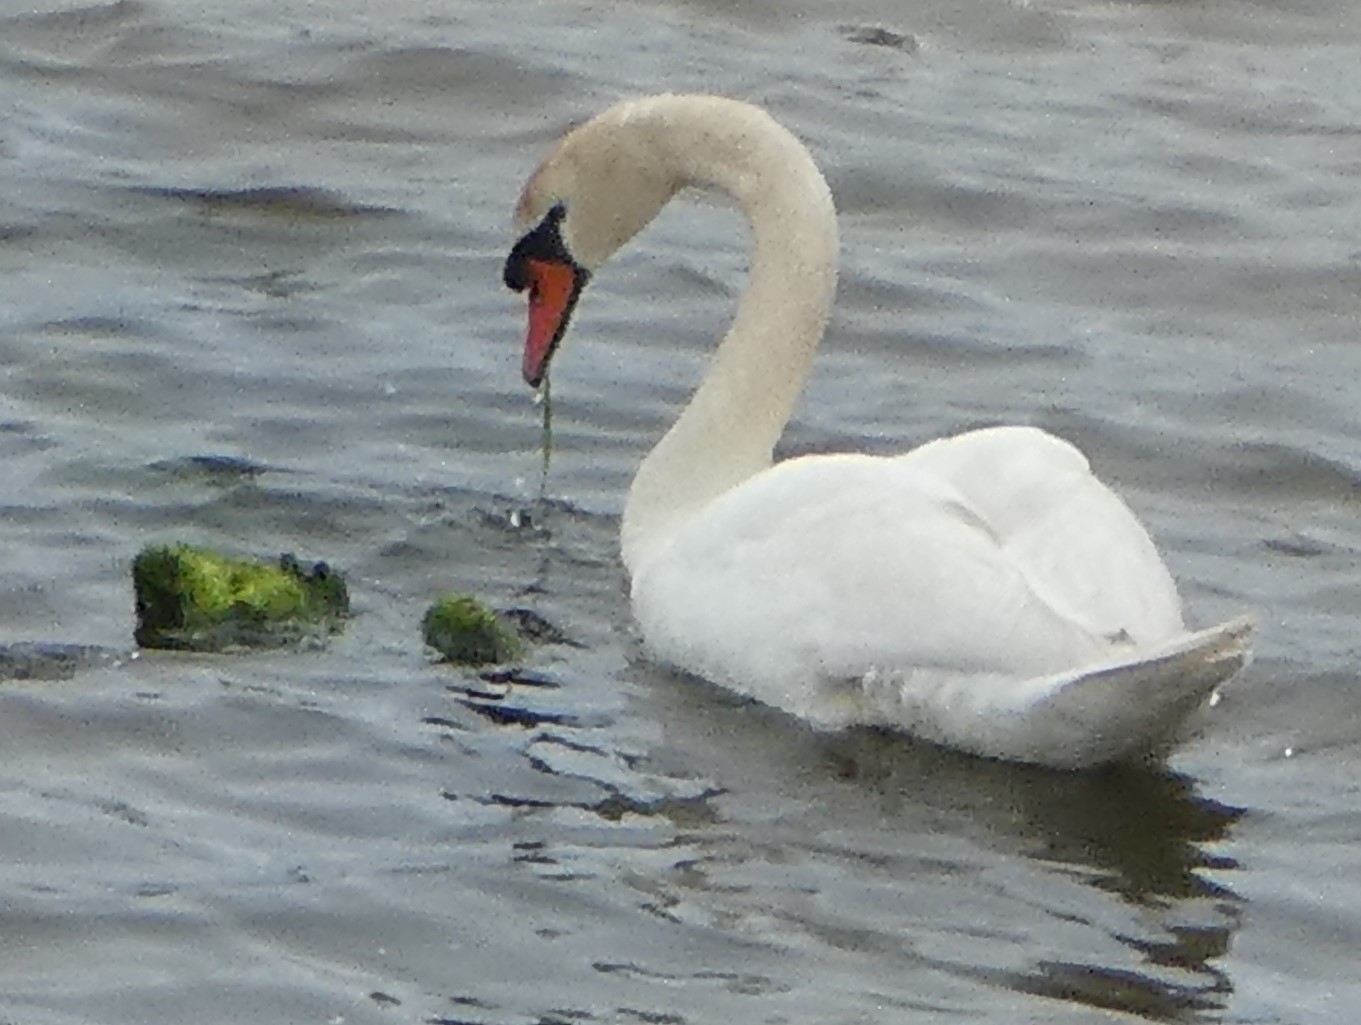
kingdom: Animalia
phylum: Chordata
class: Aves
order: Anseriformes
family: Anatidae
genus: Cygnus
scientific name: Cygnus olor
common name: Mute swan
